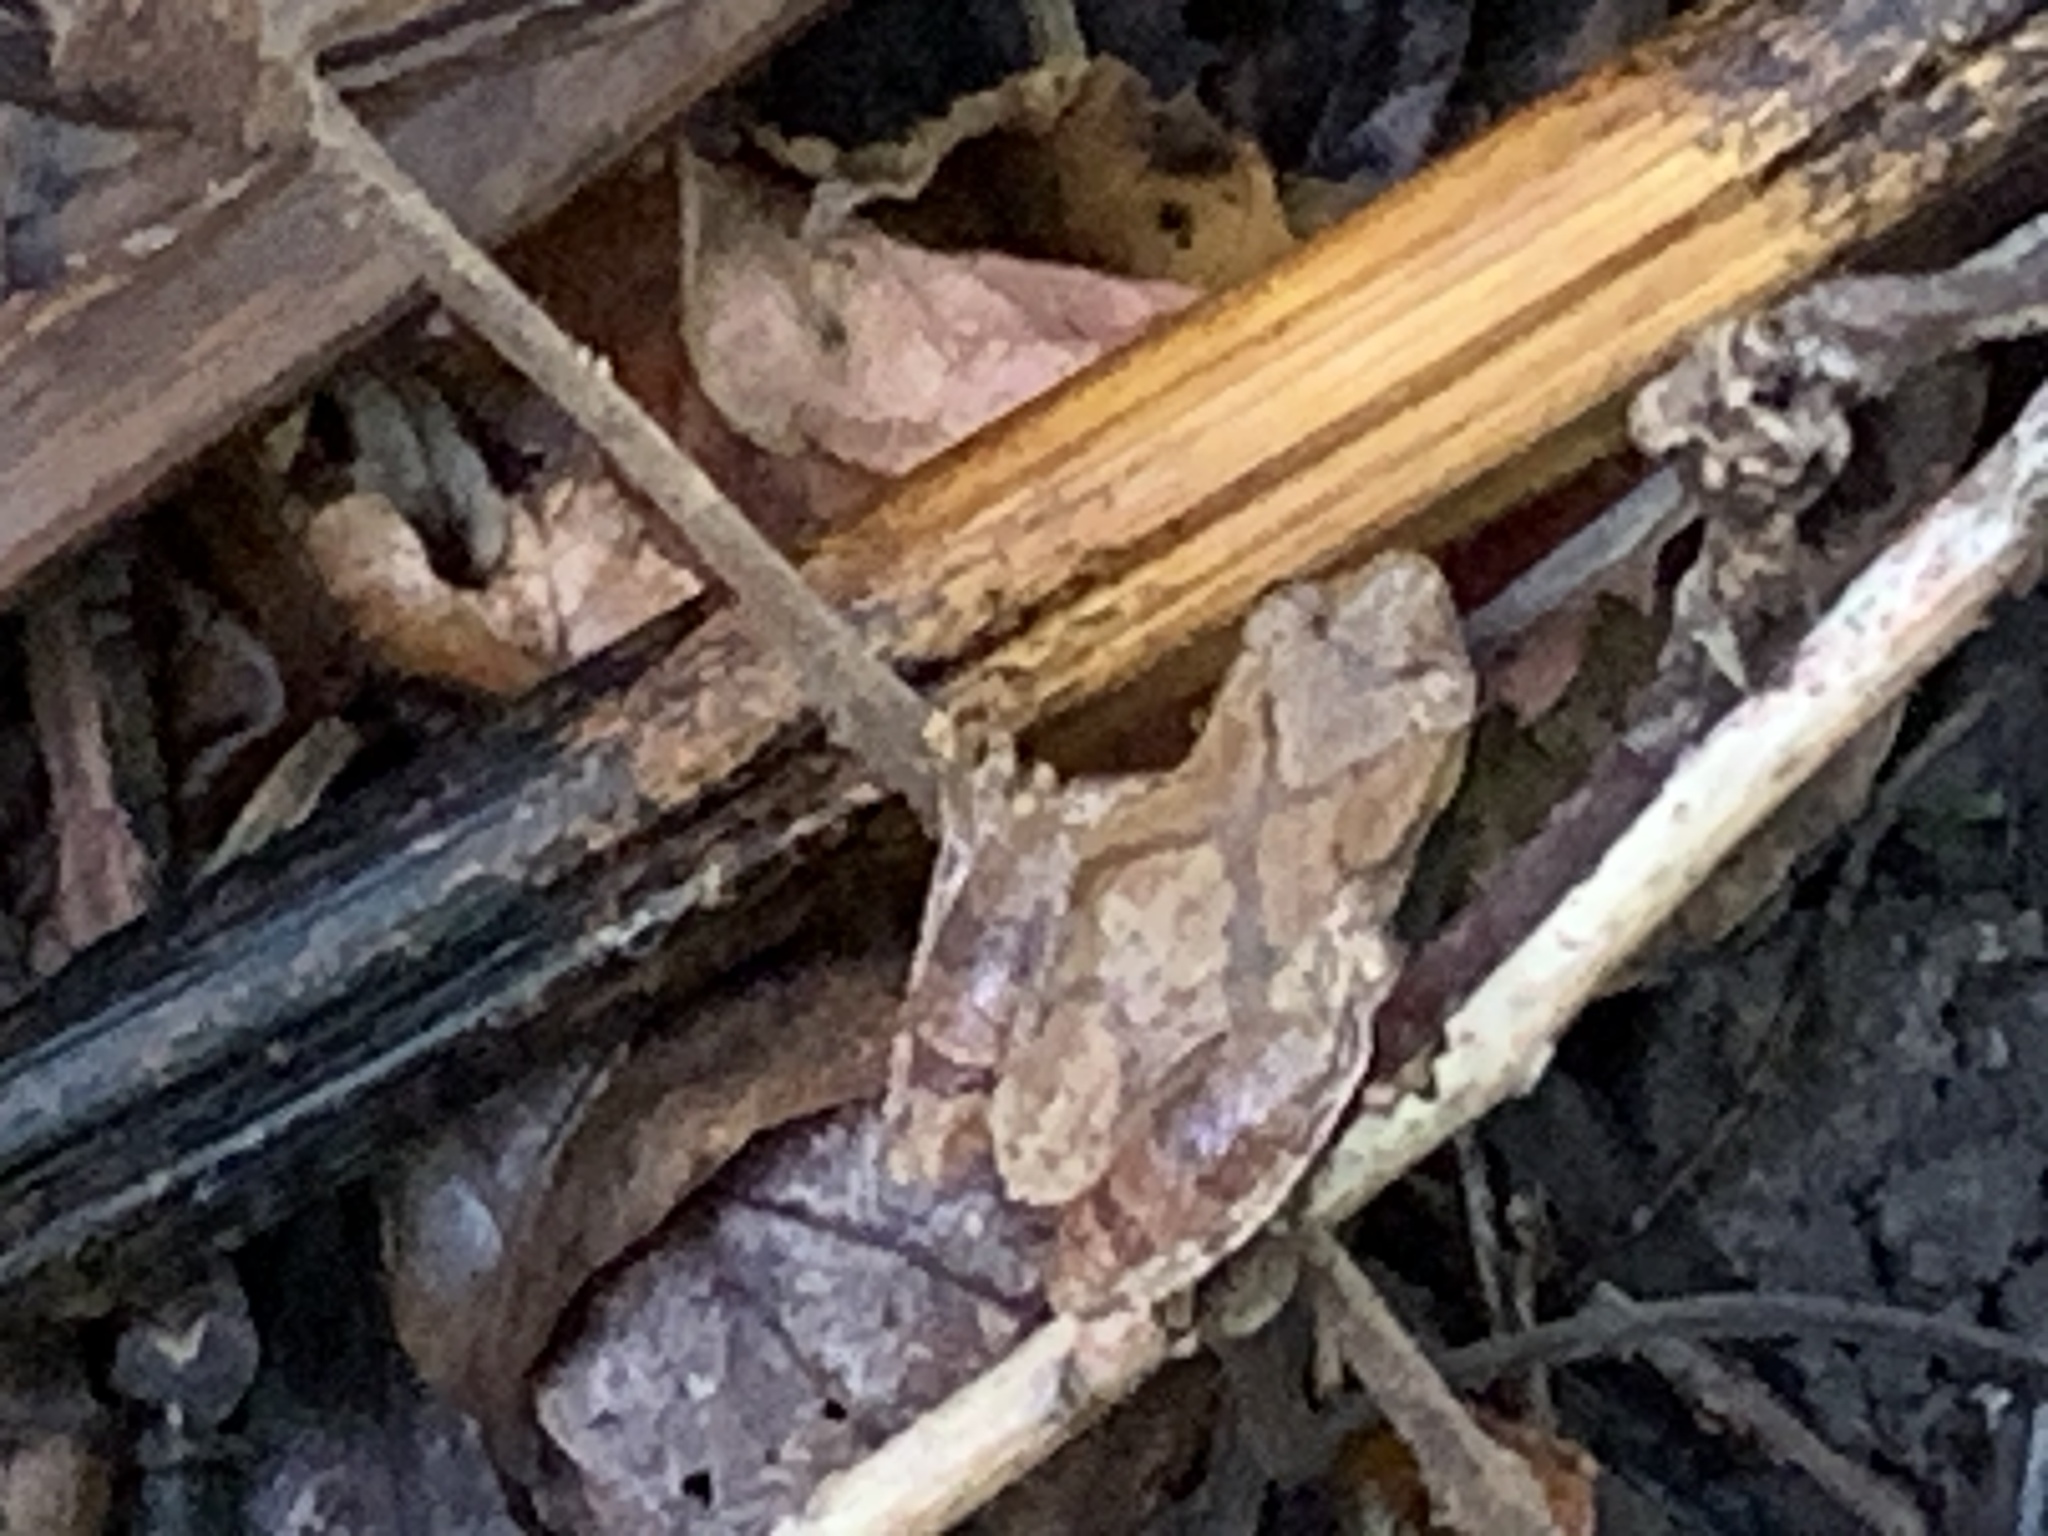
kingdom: Animalia
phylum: Chordata
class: Amphibia
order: Anura
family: Hylidae
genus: Pseudacris
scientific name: Pseudacris crucifer
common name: Spring peeper
